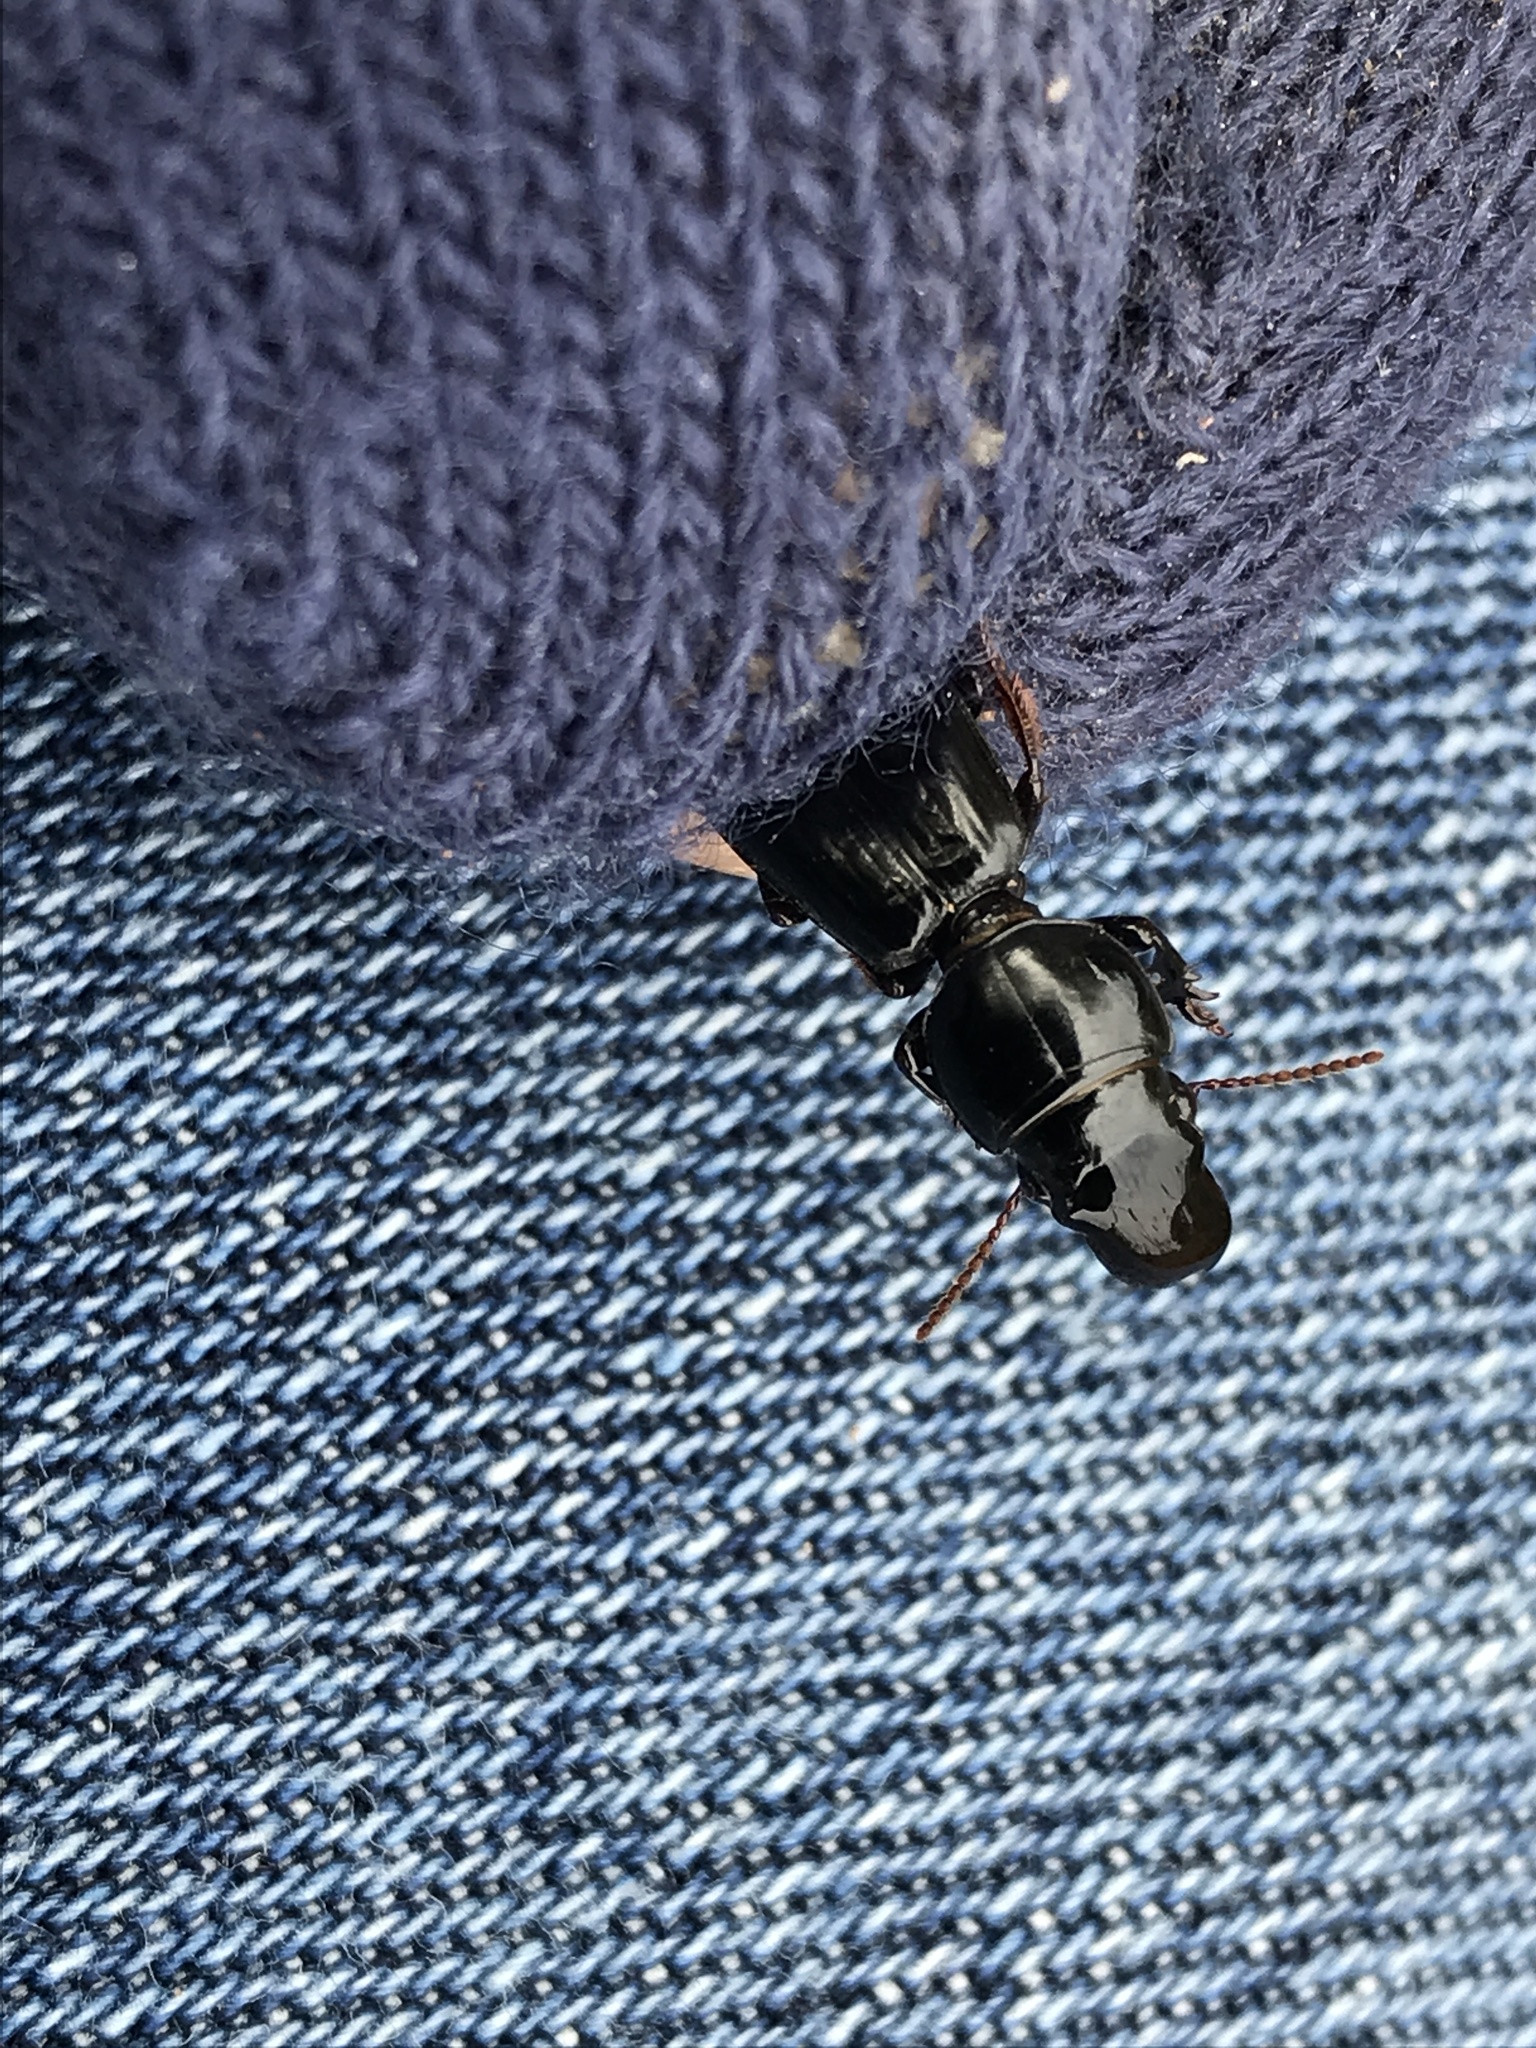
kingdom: Animalia
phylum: Arthropoda
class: Insecta
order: Coleoptera
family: Carabidae
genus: Scarites
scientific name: Scarites subterraneus
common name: Big-headed ground beetle
